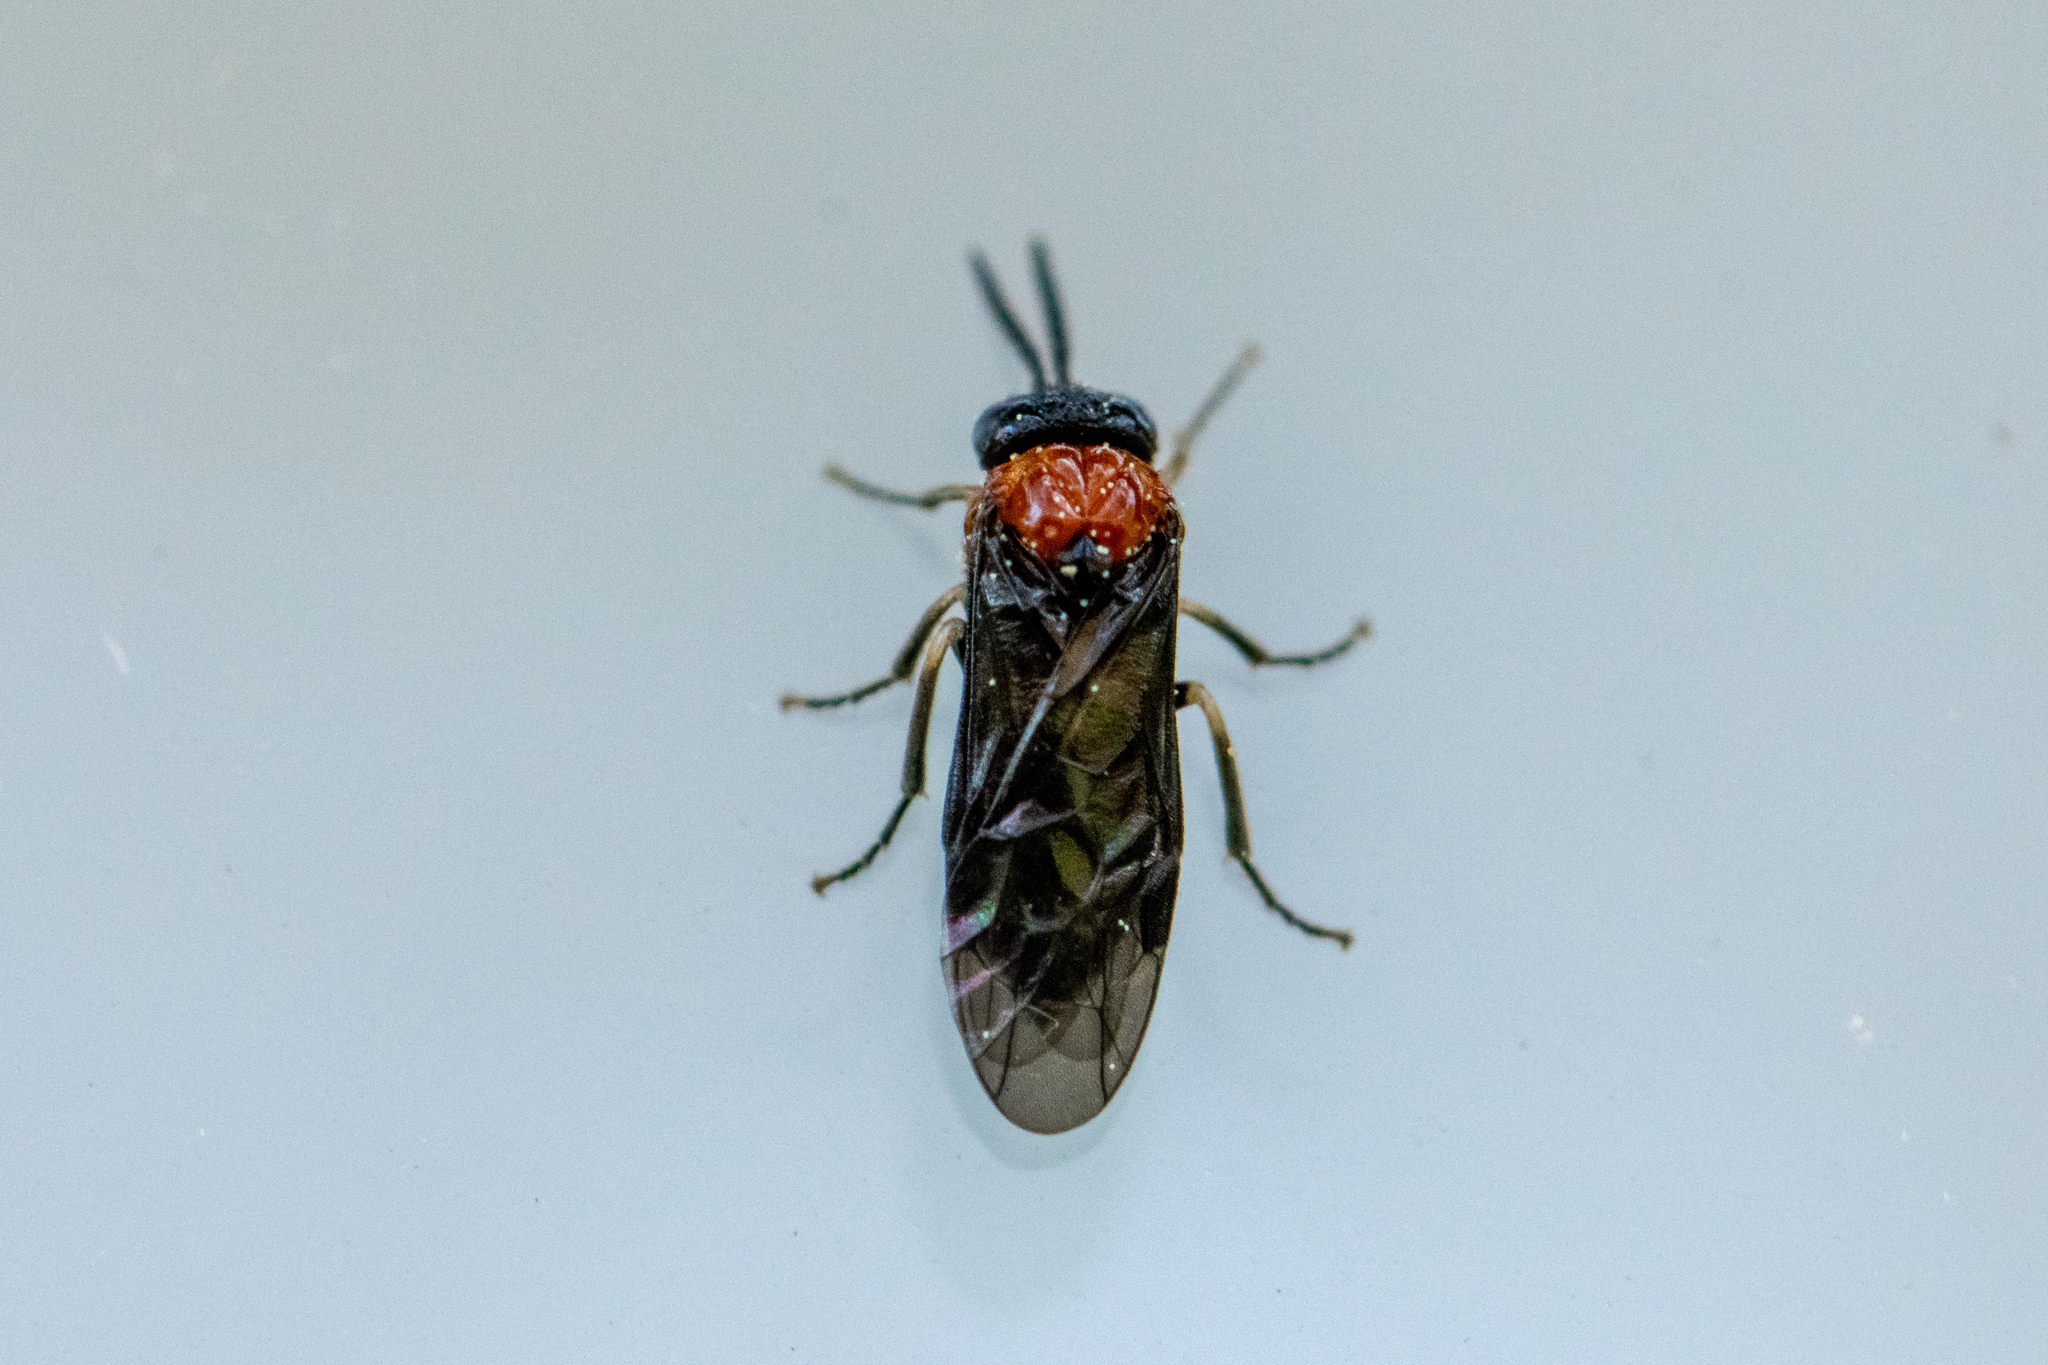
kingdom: Animalia
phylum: Arthropoda
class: Insecta
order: Hymenoptera
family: Tenthredinidae
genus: Eutomostethus
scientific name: Eutomostethus ephippium
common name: Tenthredid wasp
